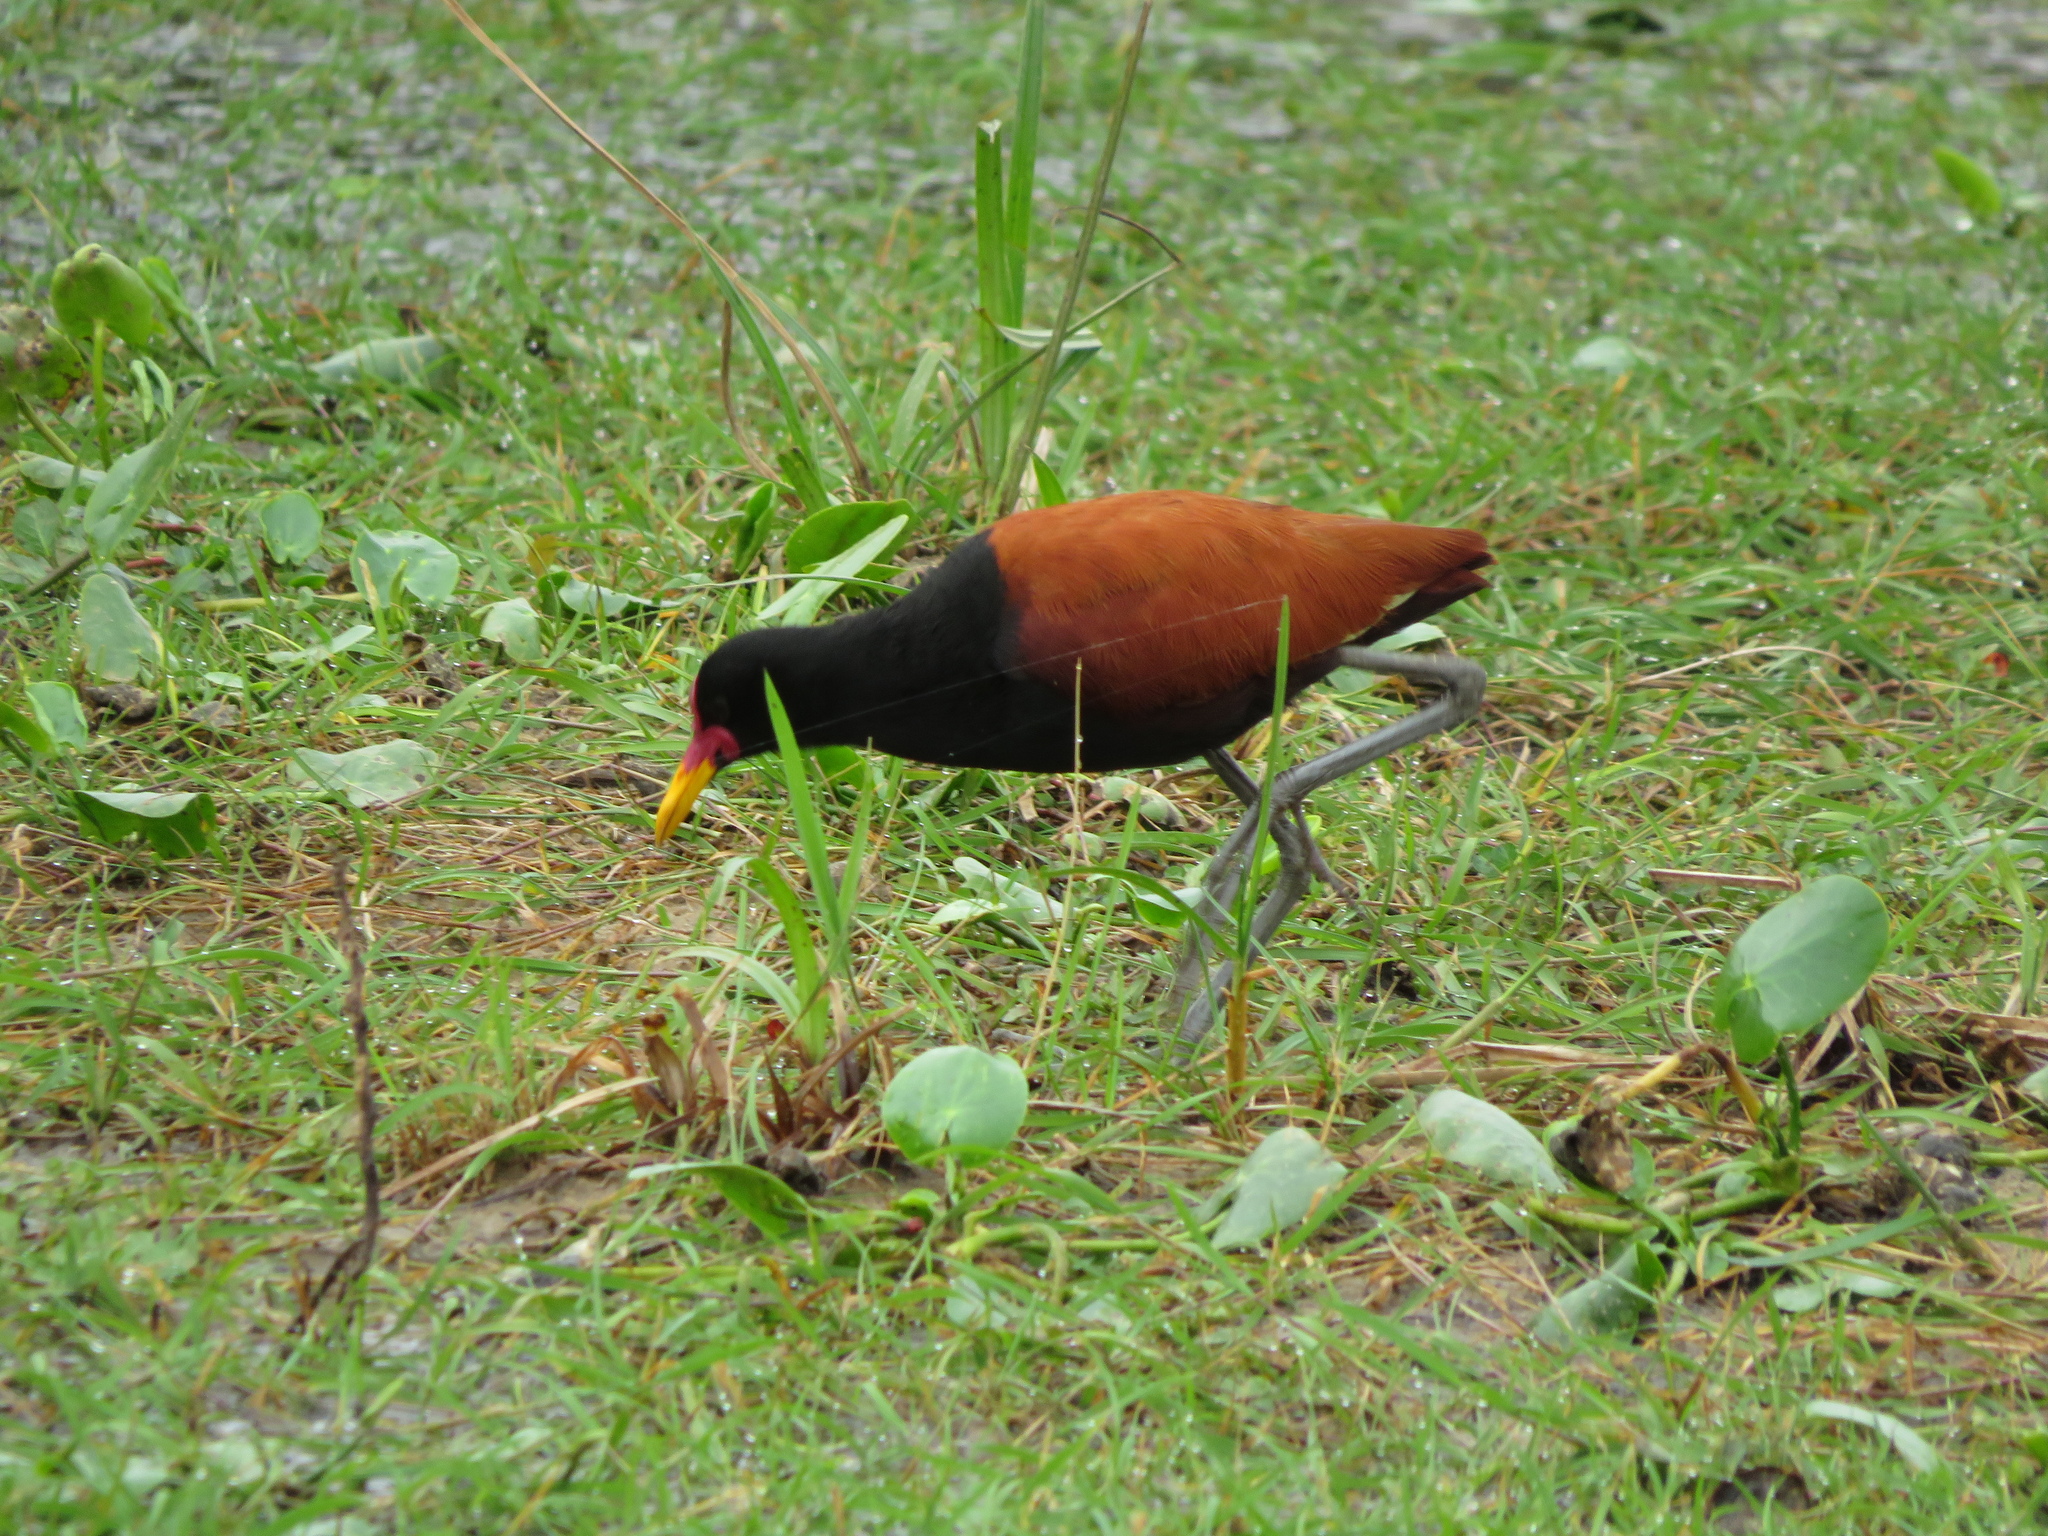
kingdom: Animalia
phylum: Chordata
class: Aves
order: Charadriiformes
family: Jacanidae
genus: Jacana
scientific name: Jacana jacana
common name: Wattled jacana
